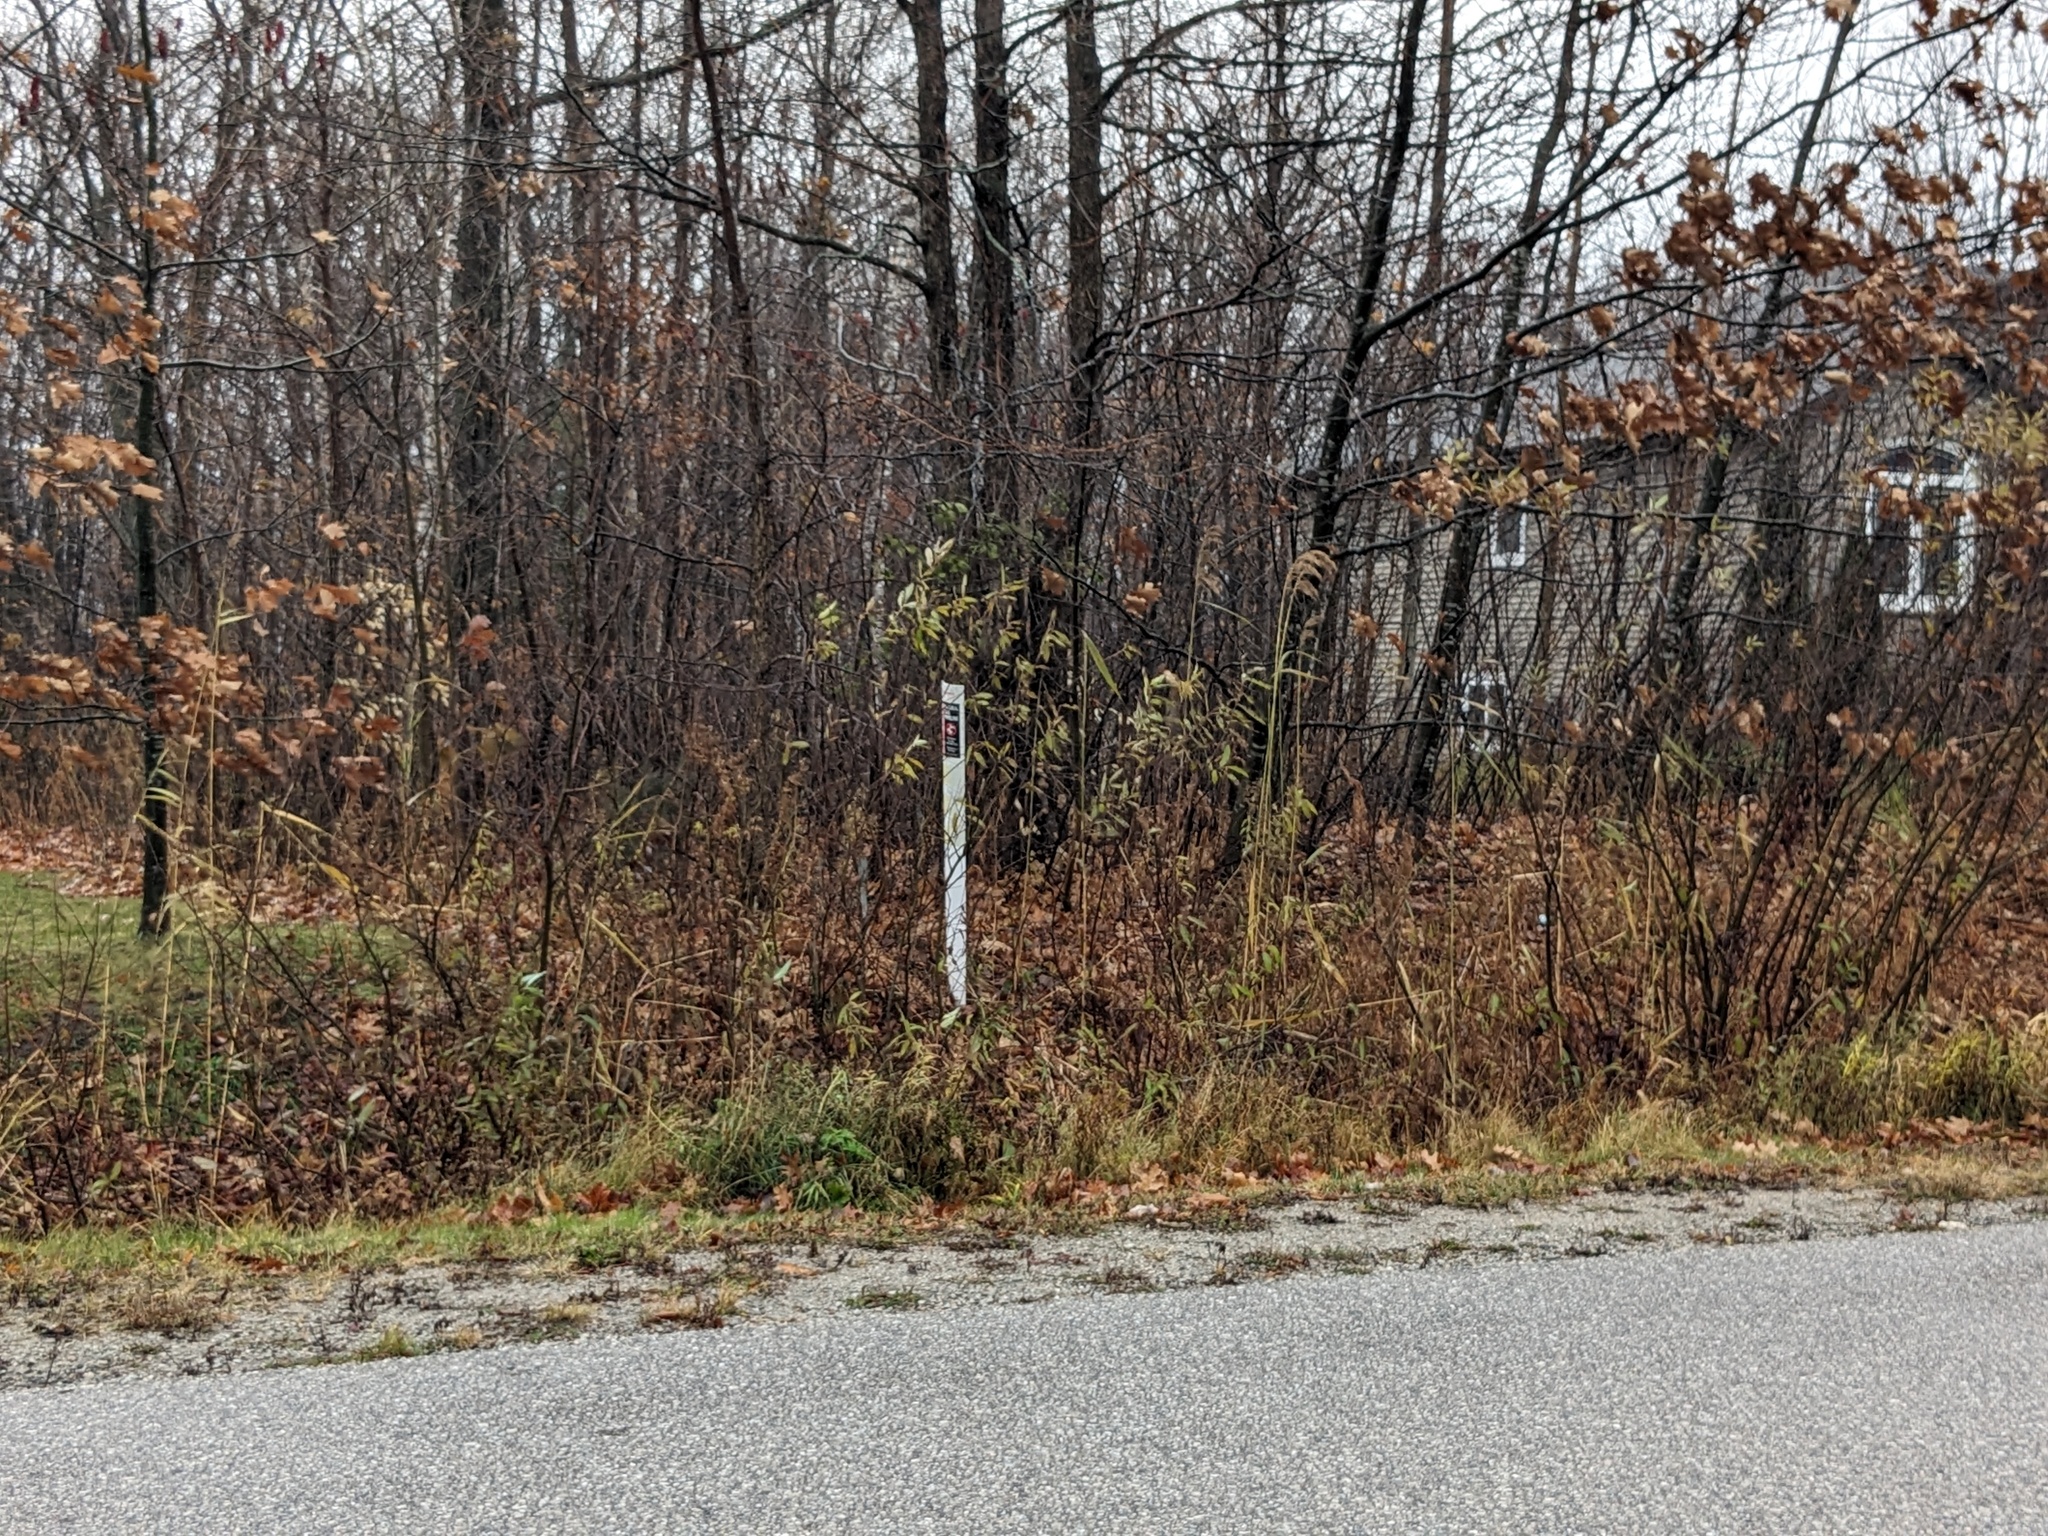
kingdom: Plantae
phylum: Tracheophyta
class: Liliopsida
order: Poales
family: Poaceae
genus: Phragmites
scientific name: Phragmites australis
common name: Common reed
